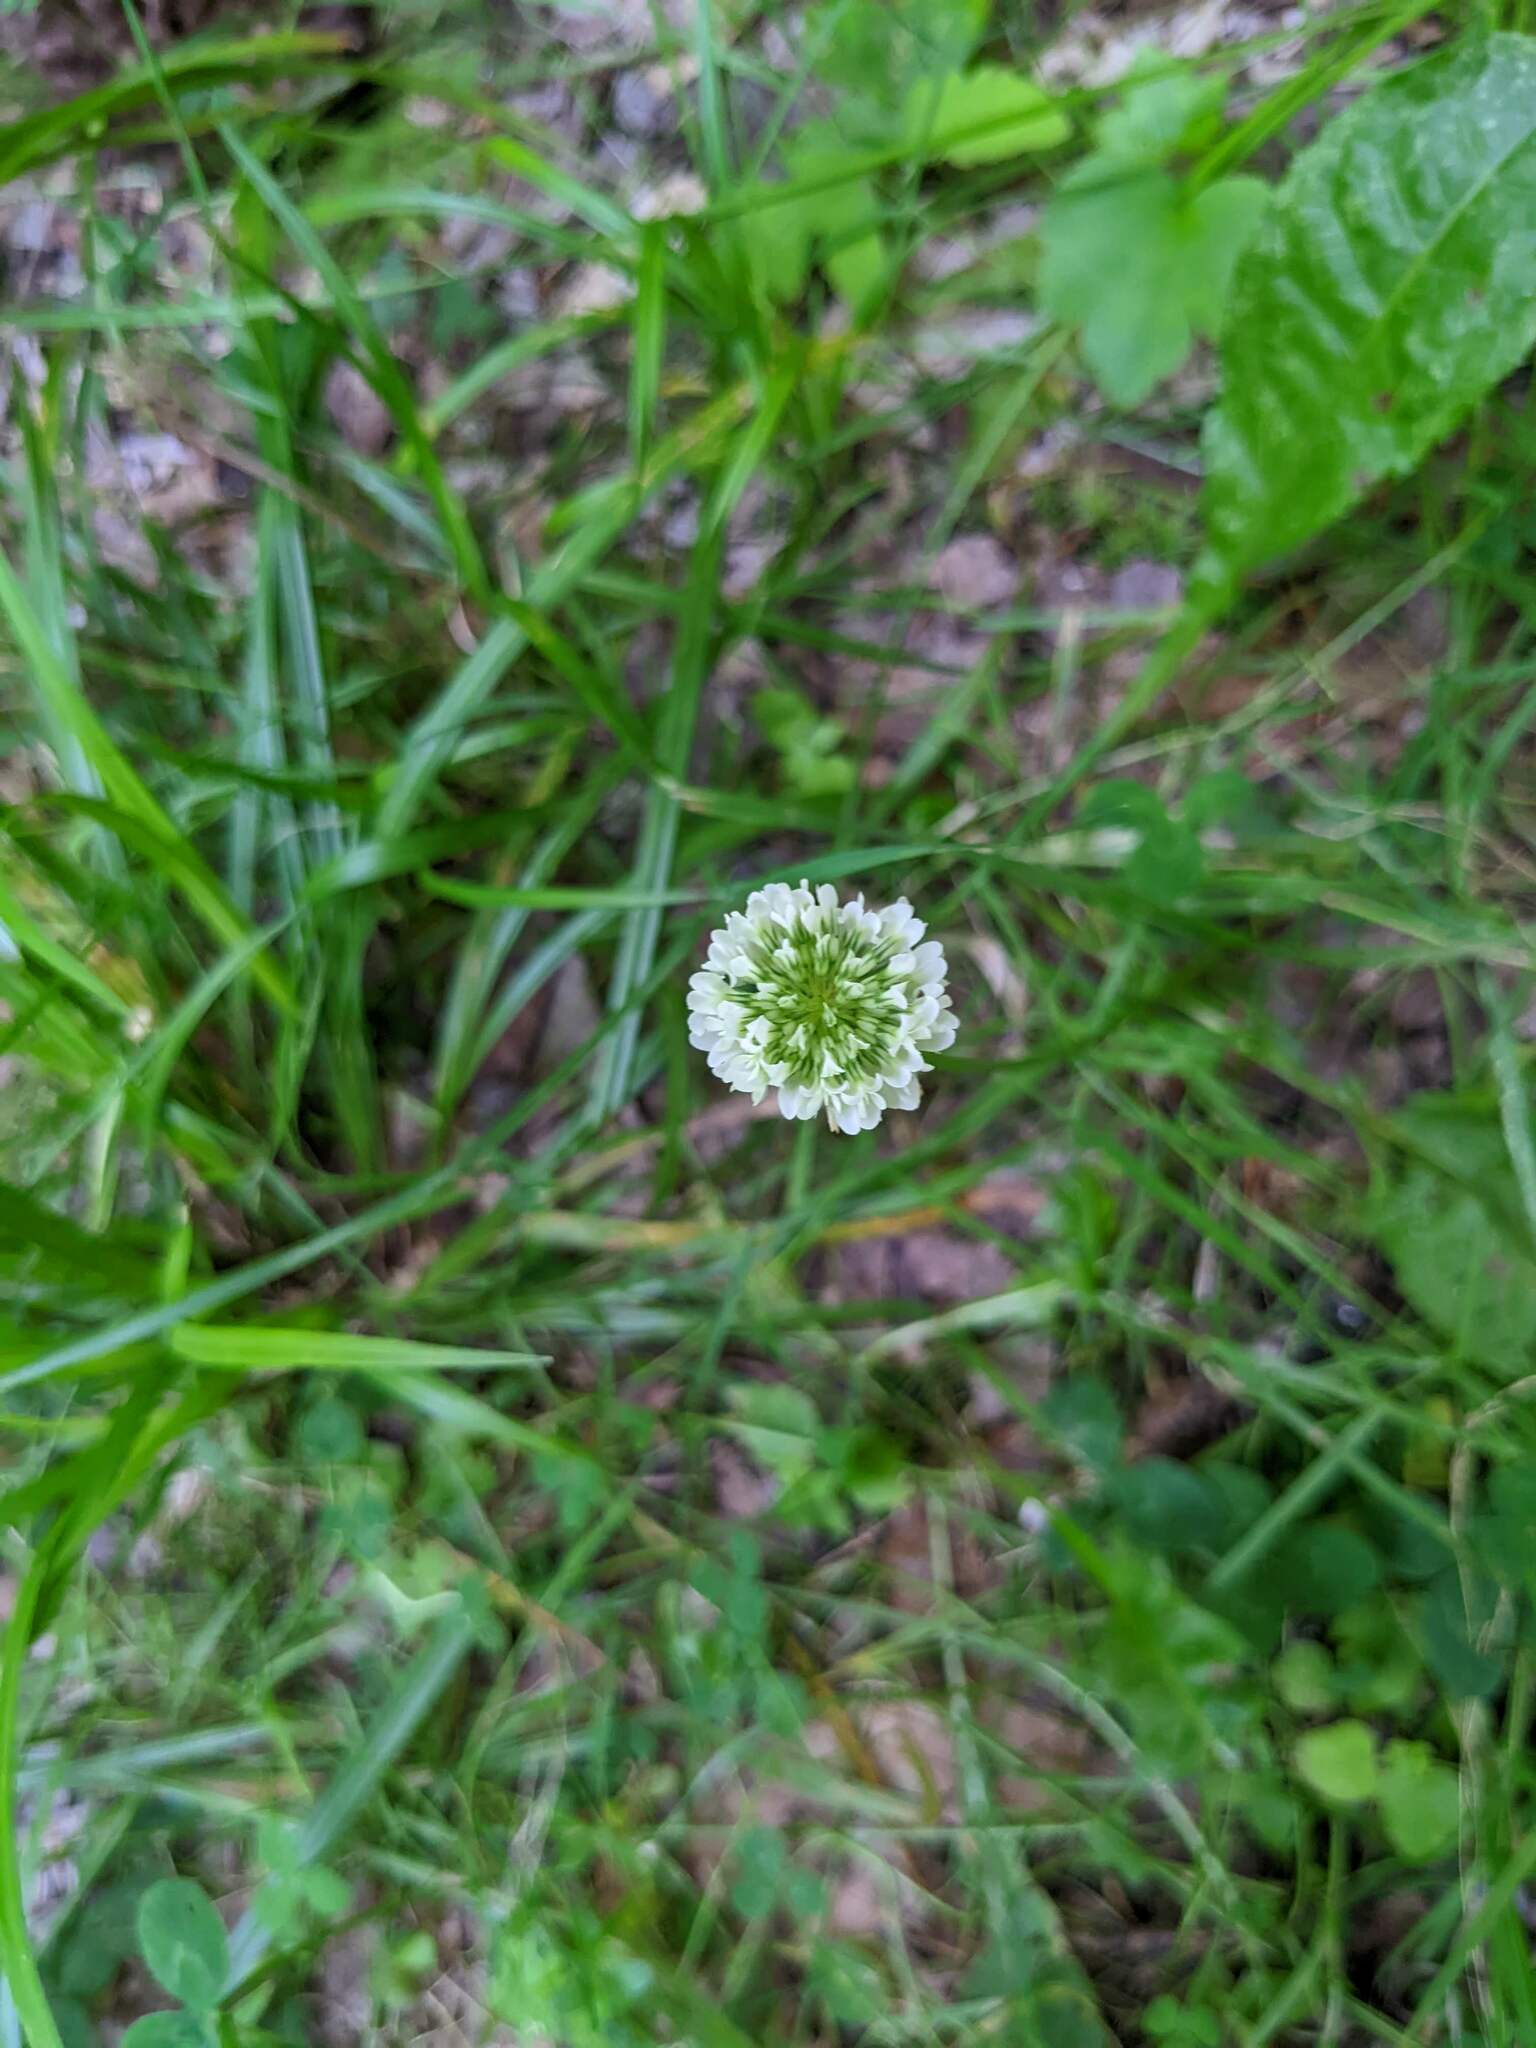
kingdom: Plantae
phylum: Tracheophyta
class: Magnoliopsida
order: Fabales
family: Fabaceae
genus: Trifolium
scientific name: Trifolium repens
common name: White clover
